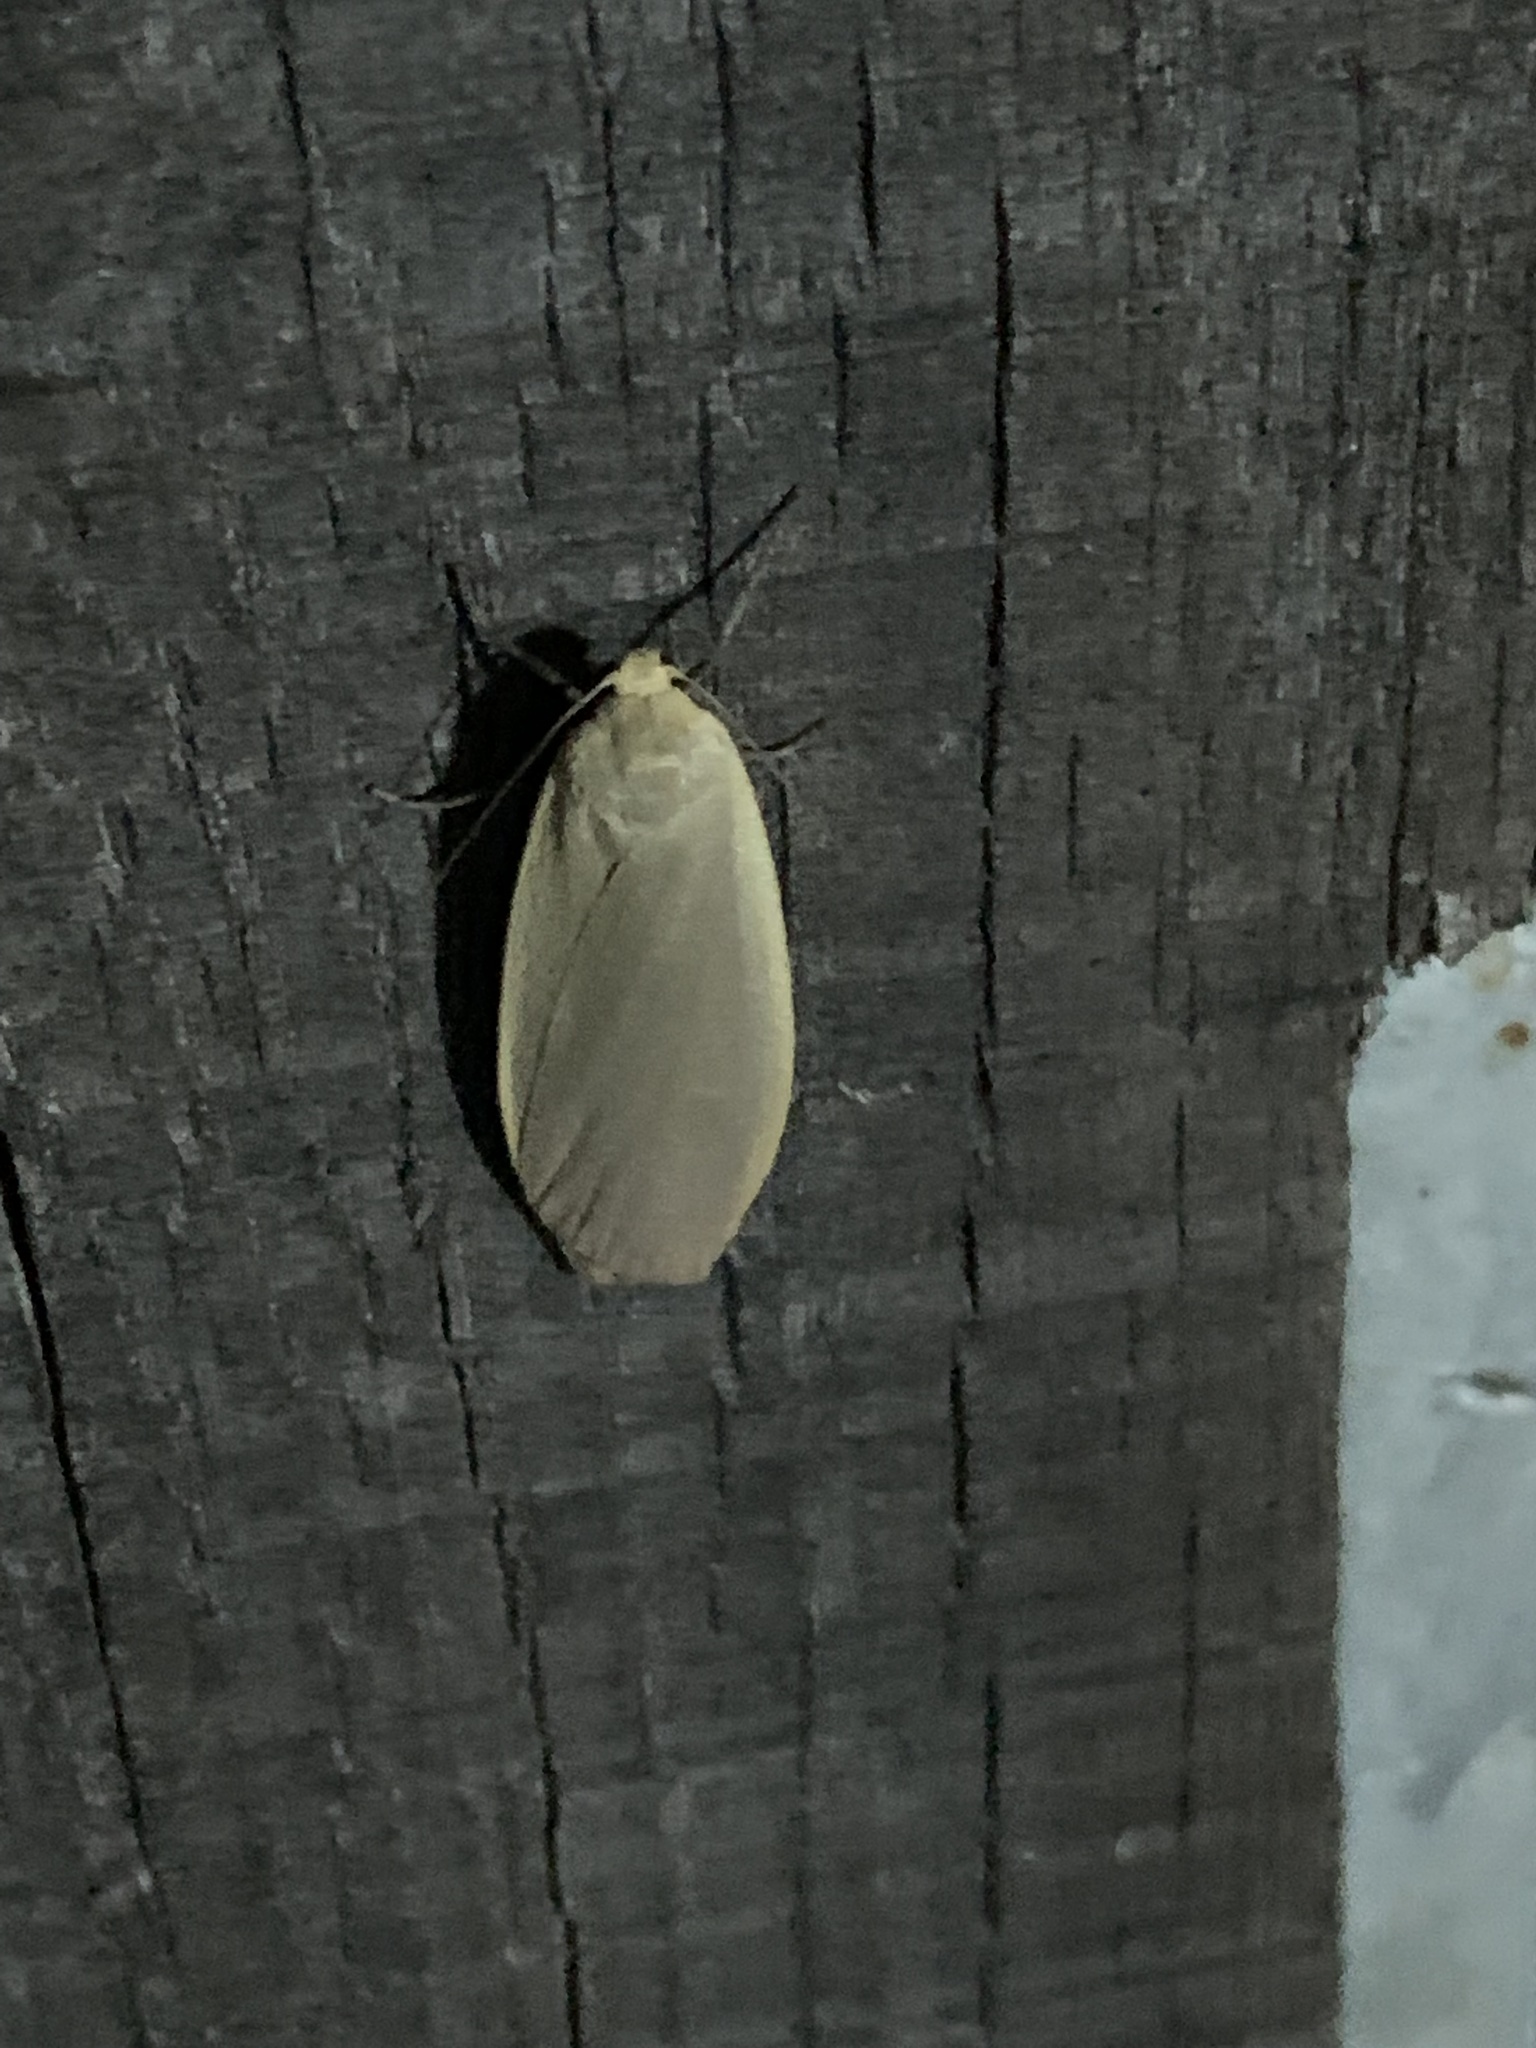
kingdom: Animalia
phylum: Arthropoda
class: Insecta
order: Lepidoptera
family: Erebidae
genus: Collita
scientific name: Collita griseola
